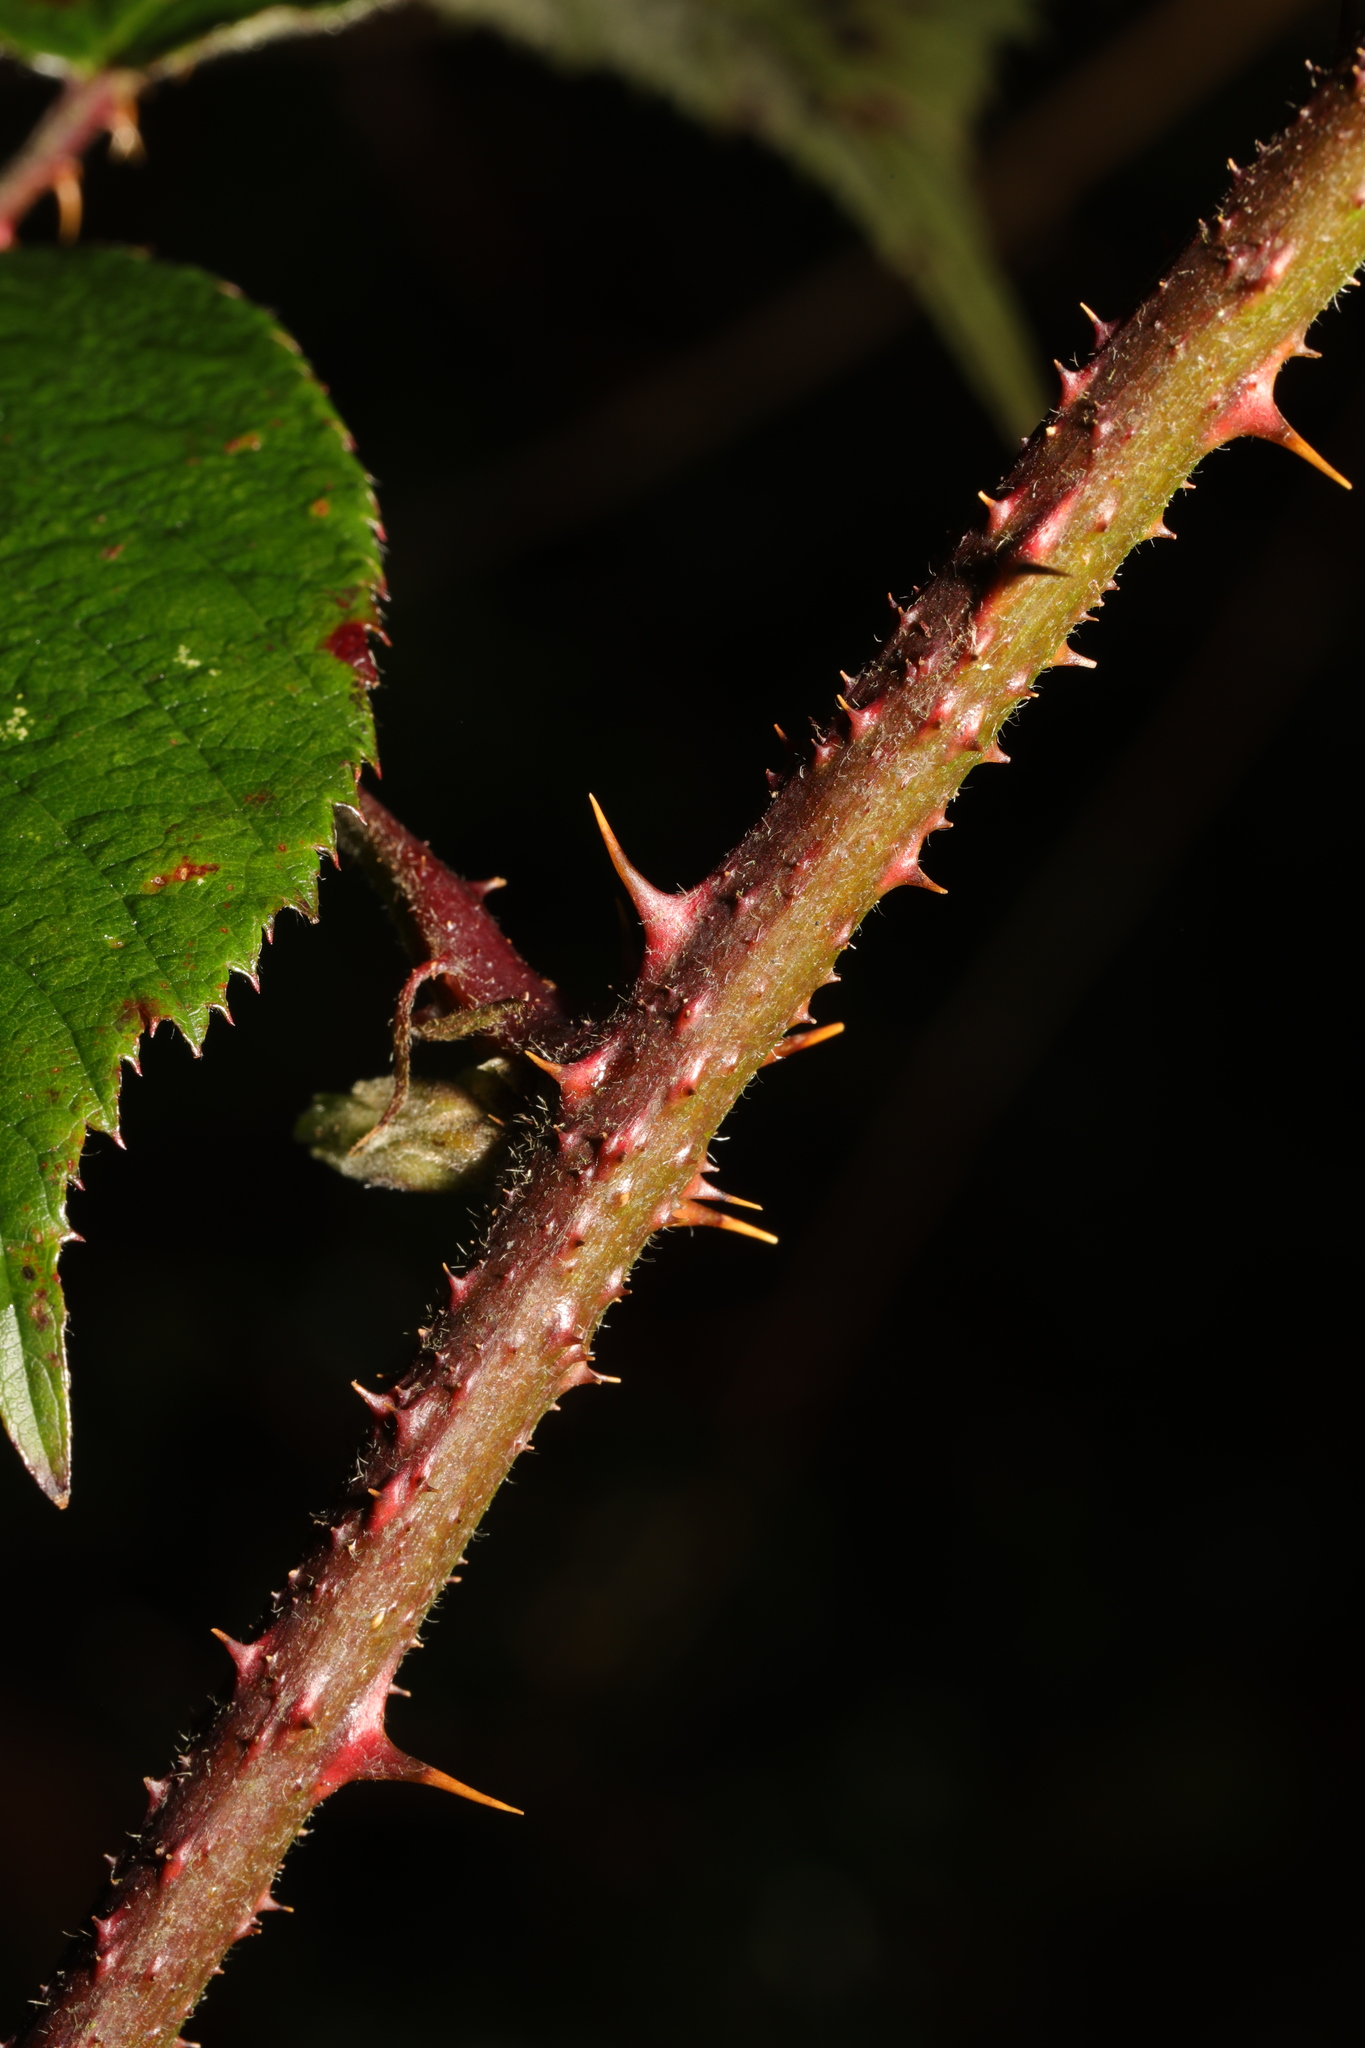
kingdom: Plantae
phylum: Tracheophyta
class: Magnoliopsida
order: Rosales
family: Rosaceae
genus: Rubus
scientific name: Rubus dasyphyllus
